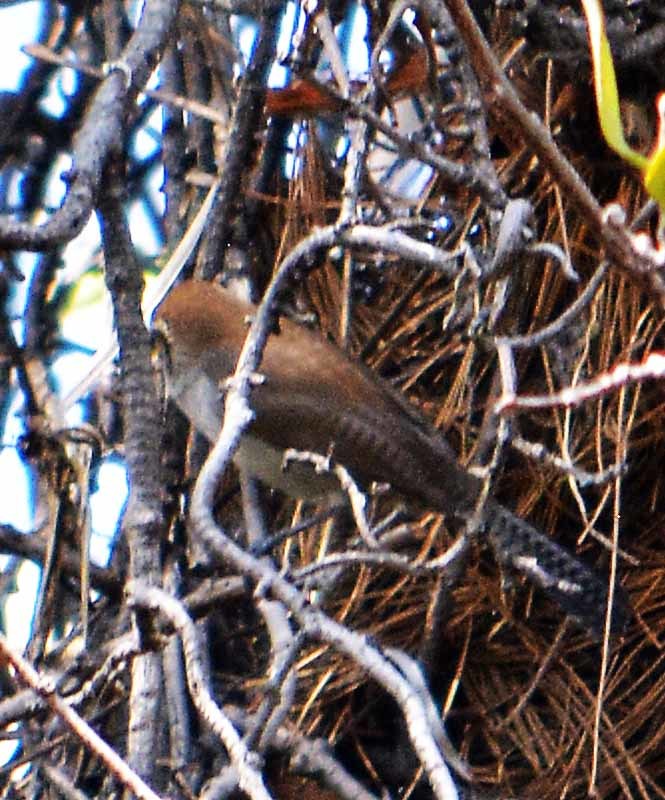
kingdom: Animalia
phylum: Chordata
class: Aves
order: Passeriformes
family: Troglodytidae
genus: Thryomanes
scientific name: Thryomanes bewickii
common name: Bewick's wren
